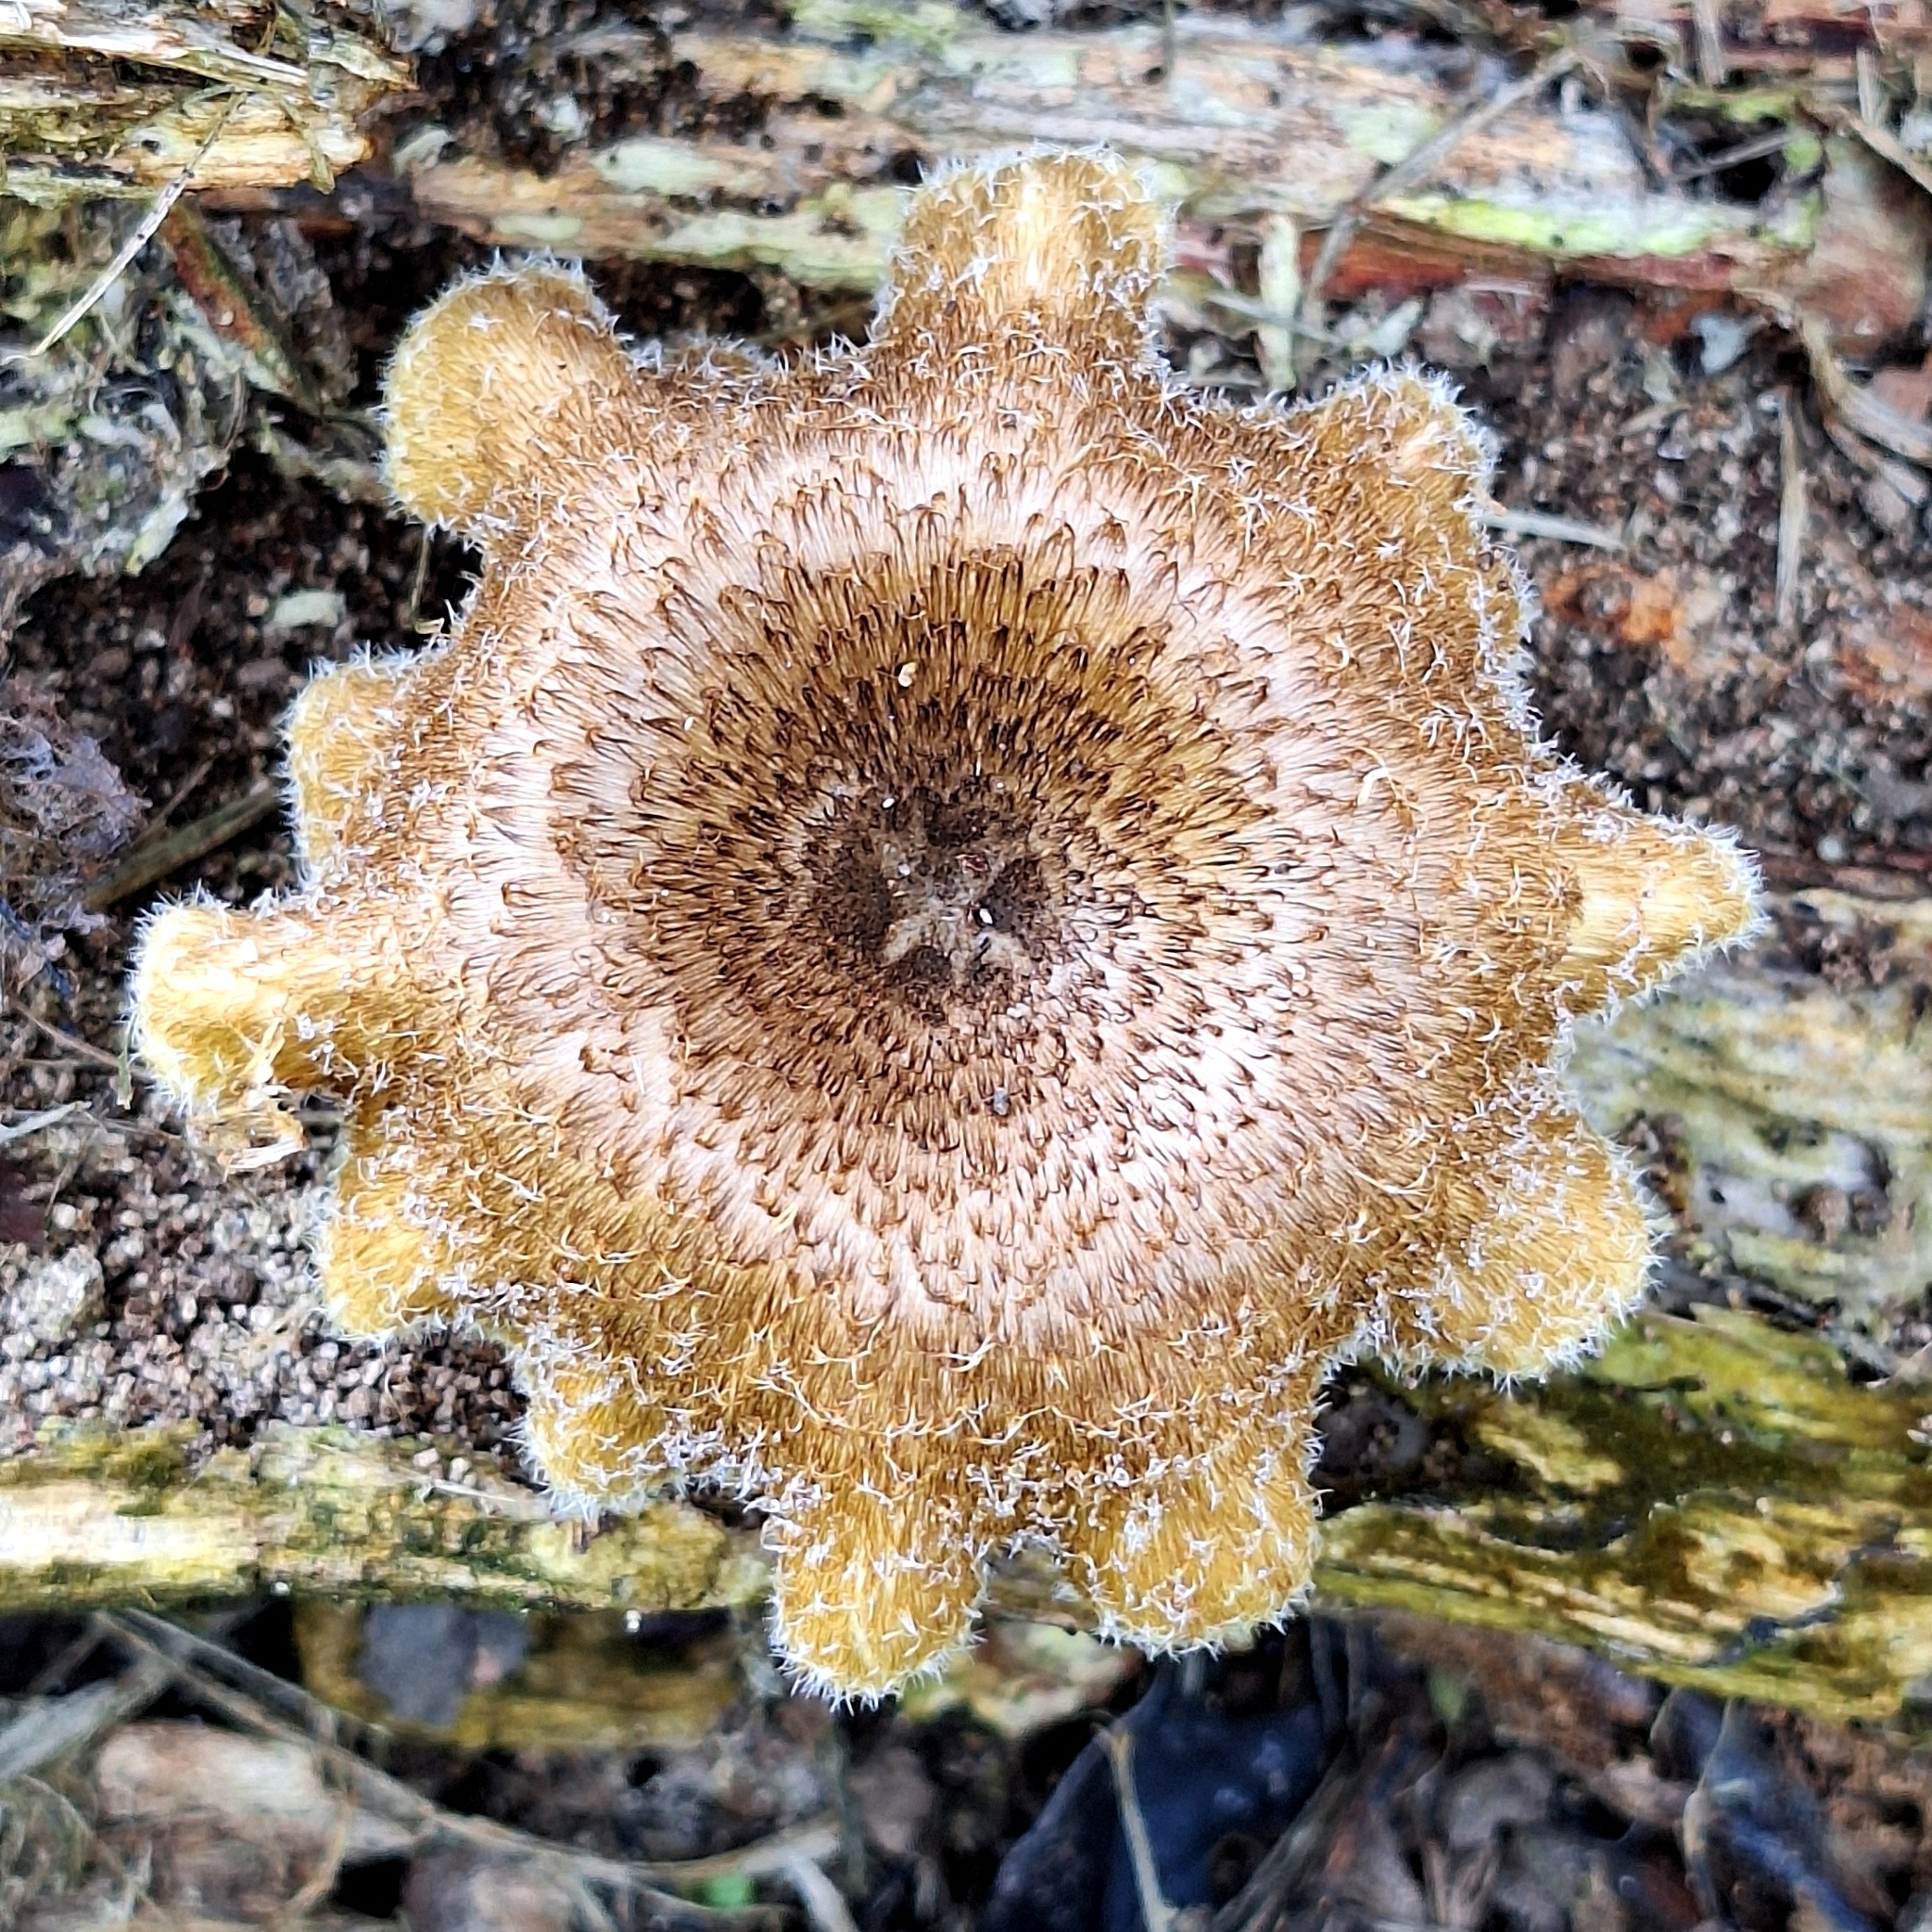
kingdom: Fungi
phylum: Basidiomycota
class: Agaricomycetes
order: Polyporales
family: Polyporaceae
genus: Lentinus
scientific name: Lentinus crinitus
